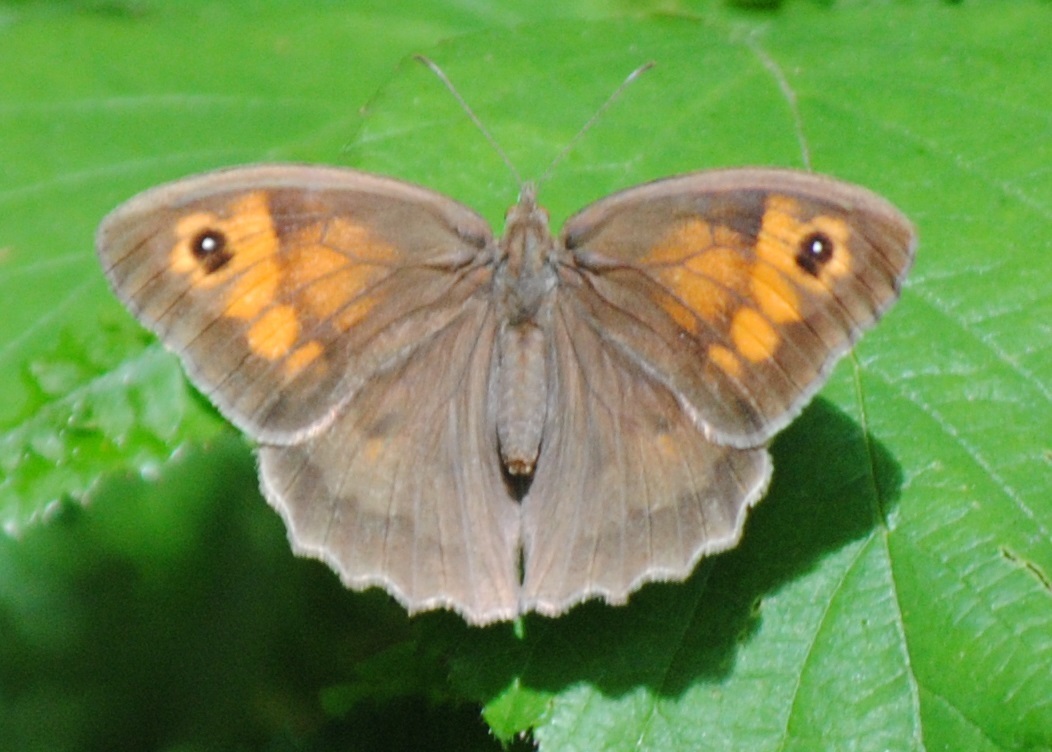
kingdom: Animalia
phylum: Arthropoda
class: Insecta
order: Lepidoptera
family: Nymphalidae
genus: Maniola
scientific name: Maniola jurtina
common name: Meadow brown
